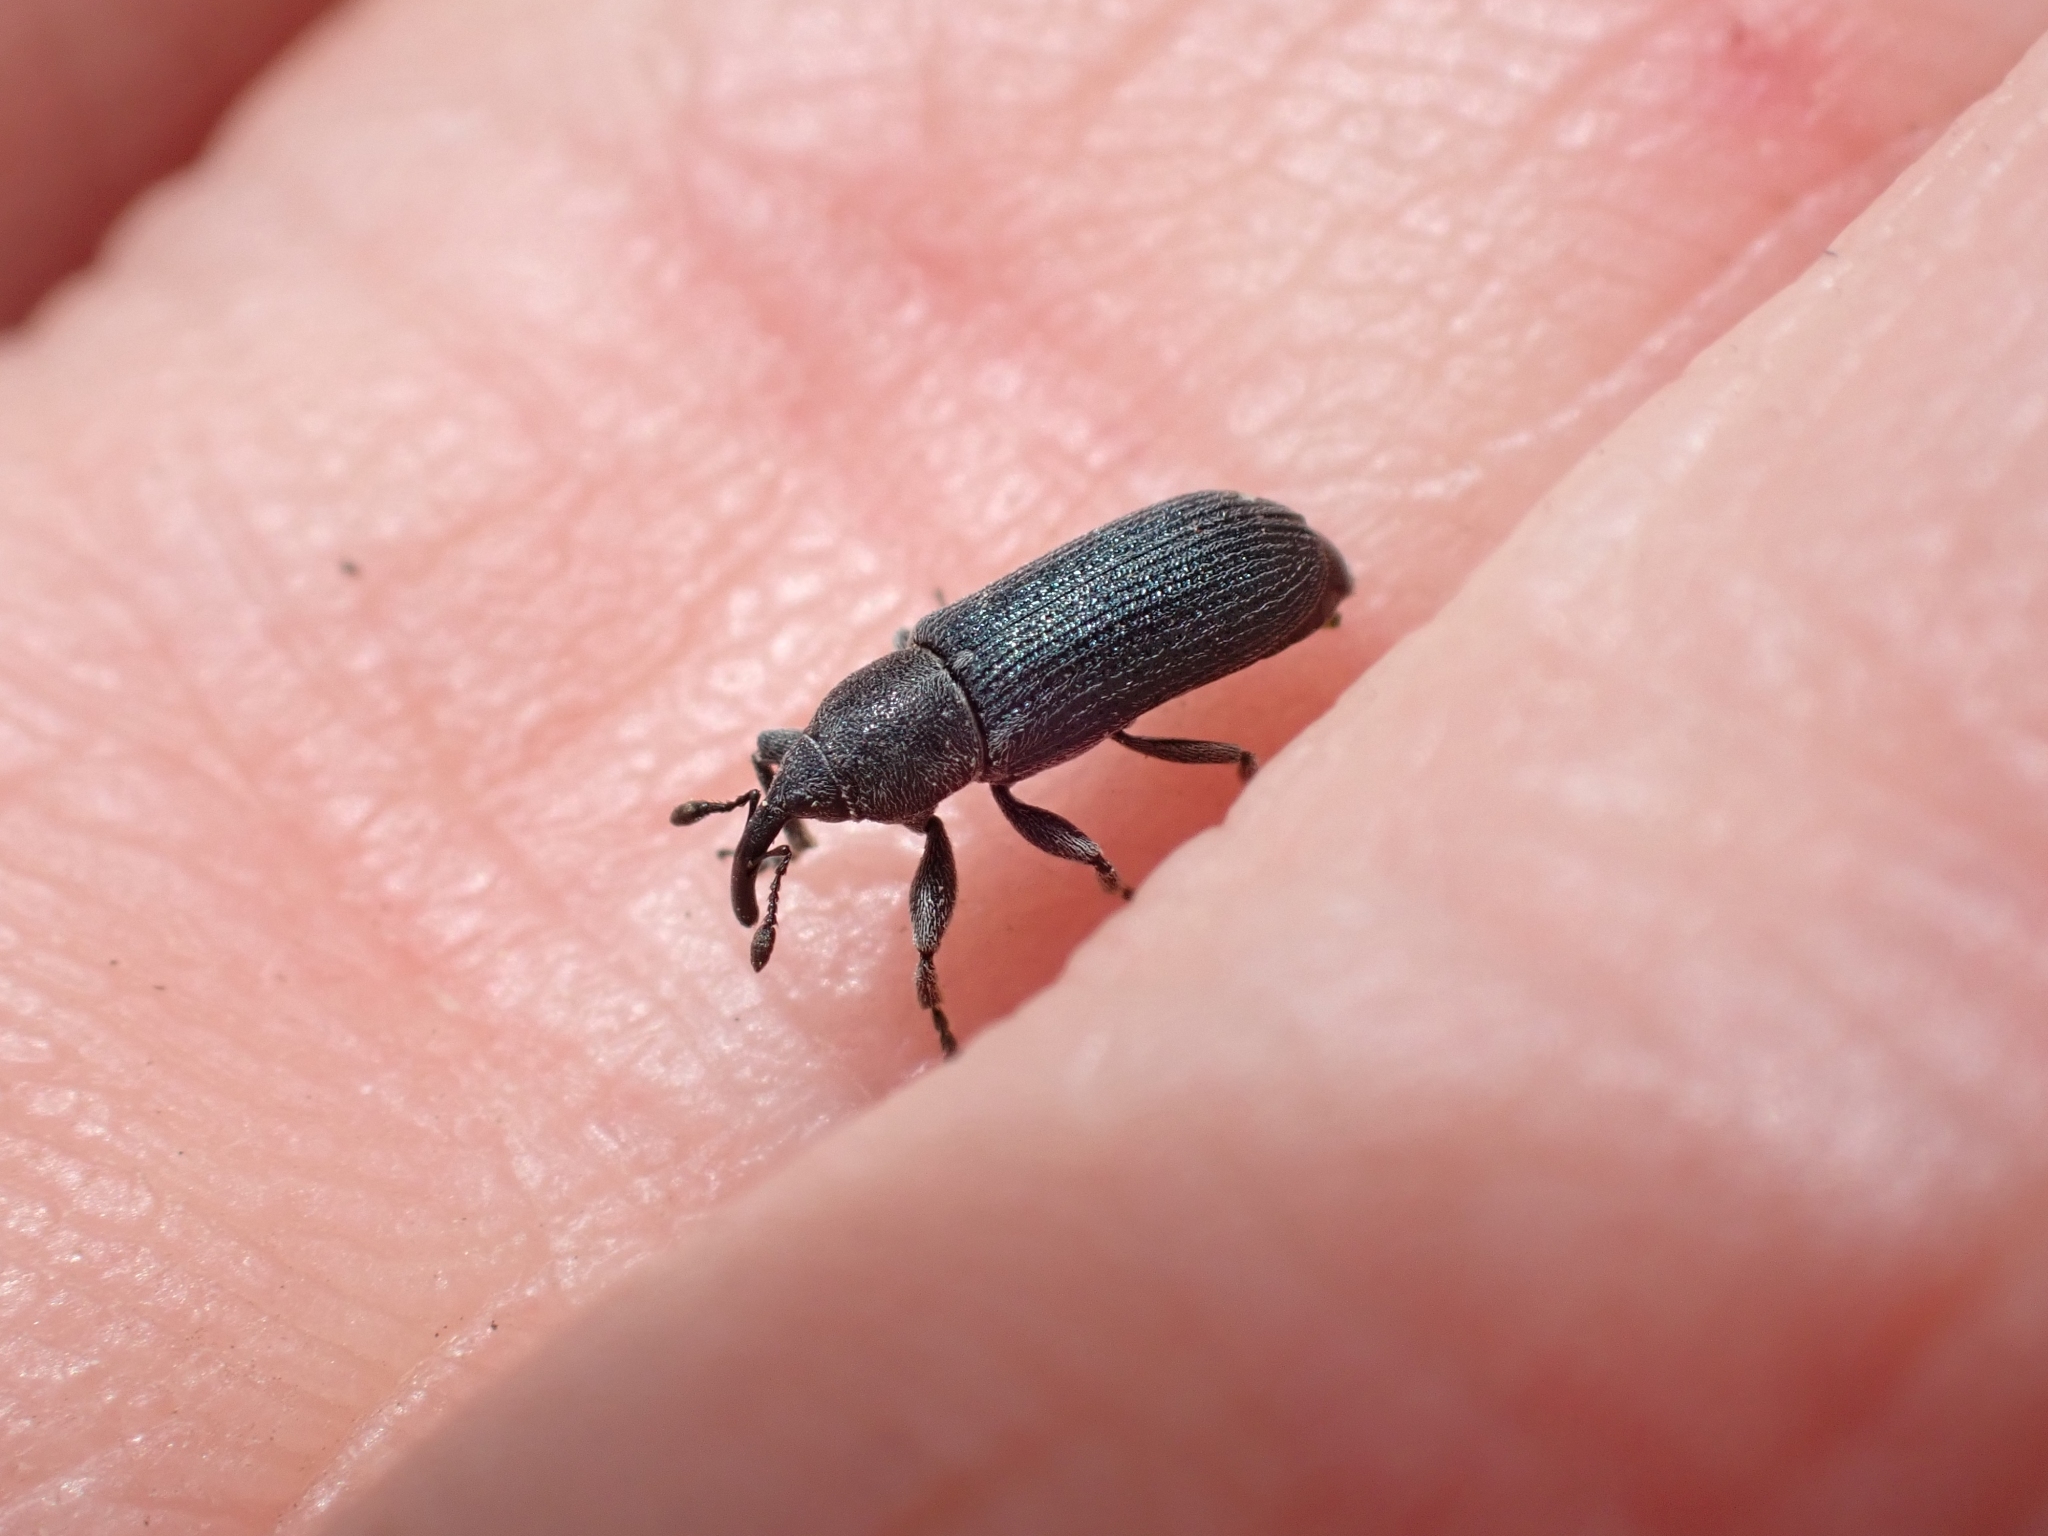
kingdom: Animalia
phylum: Arthropoda
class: Insecta
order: Coleoptera
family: Curculionidae
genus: Mecinus
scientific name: Mecinus janthiniformis
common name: Dalmatian toadflax stem weevil
